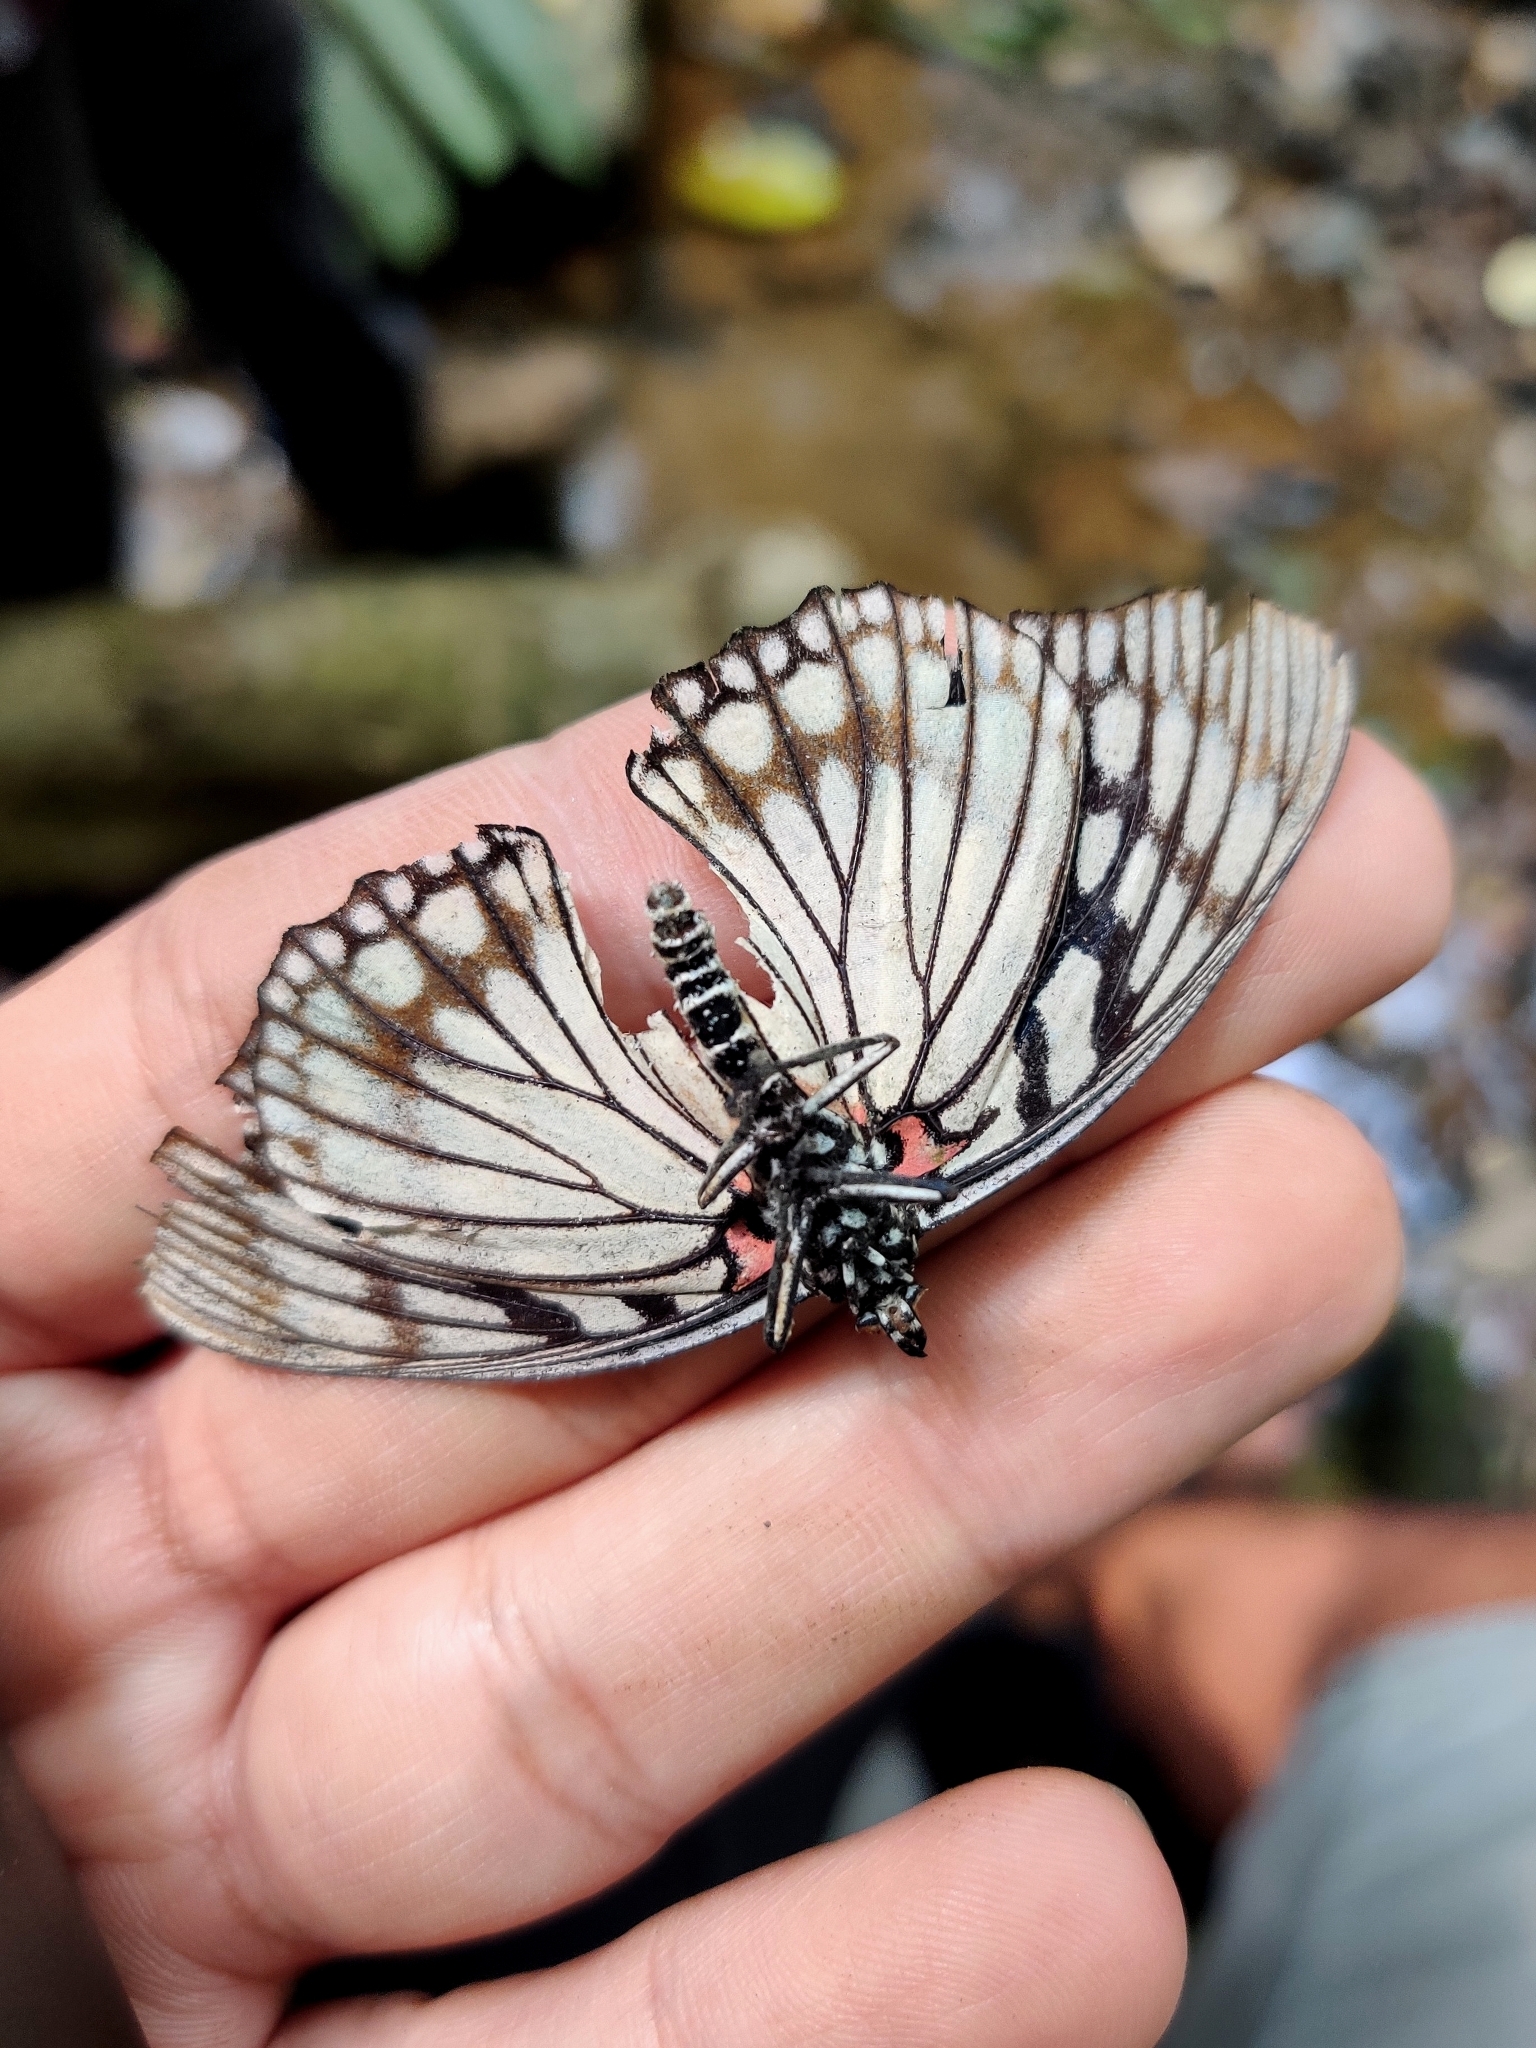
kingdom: Animalia
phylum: Arthropoda
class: Insecta
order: Lepidoptera
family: Nymphalidae
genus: Euripus
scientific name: Euripus consimilis
